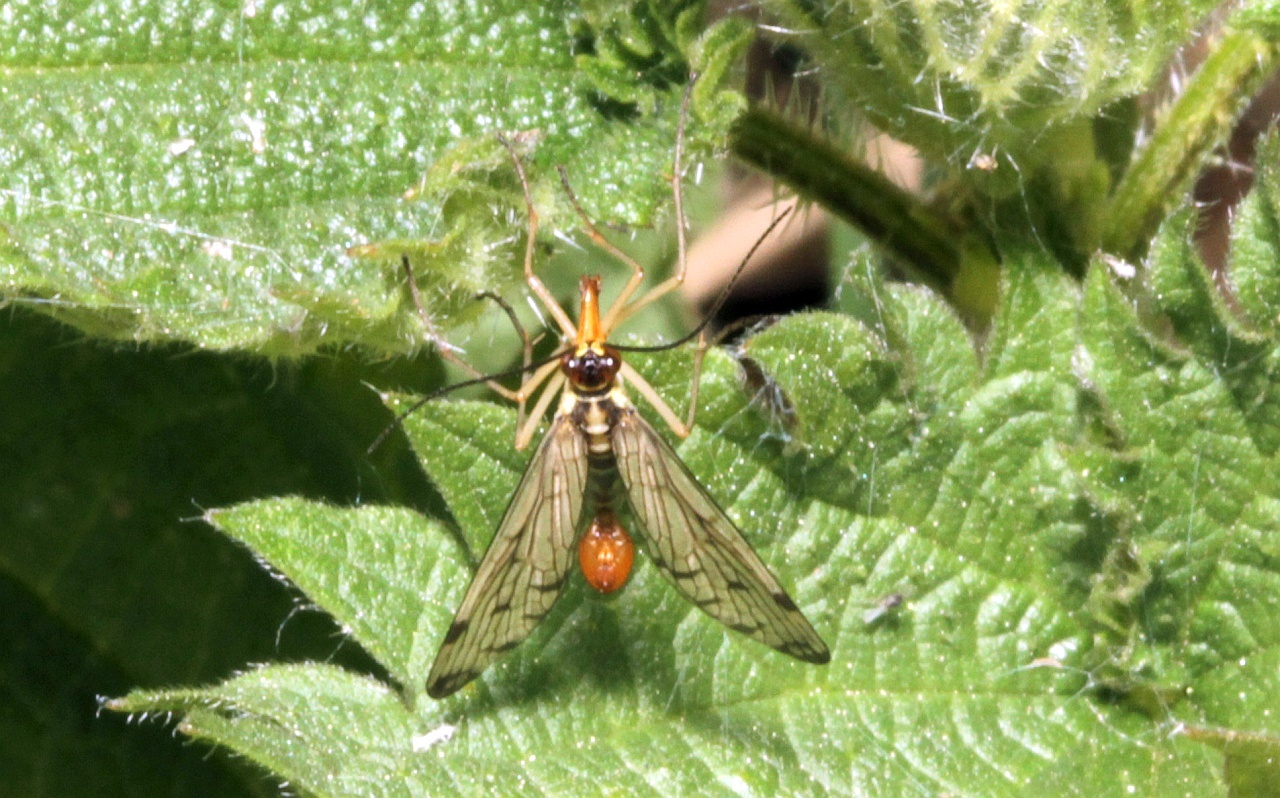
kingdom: Animalia
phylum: Arthropoda
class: Insecta
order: Mecoptera
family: Panorpidae
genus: Panorpa
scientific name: Panorpa germanica
